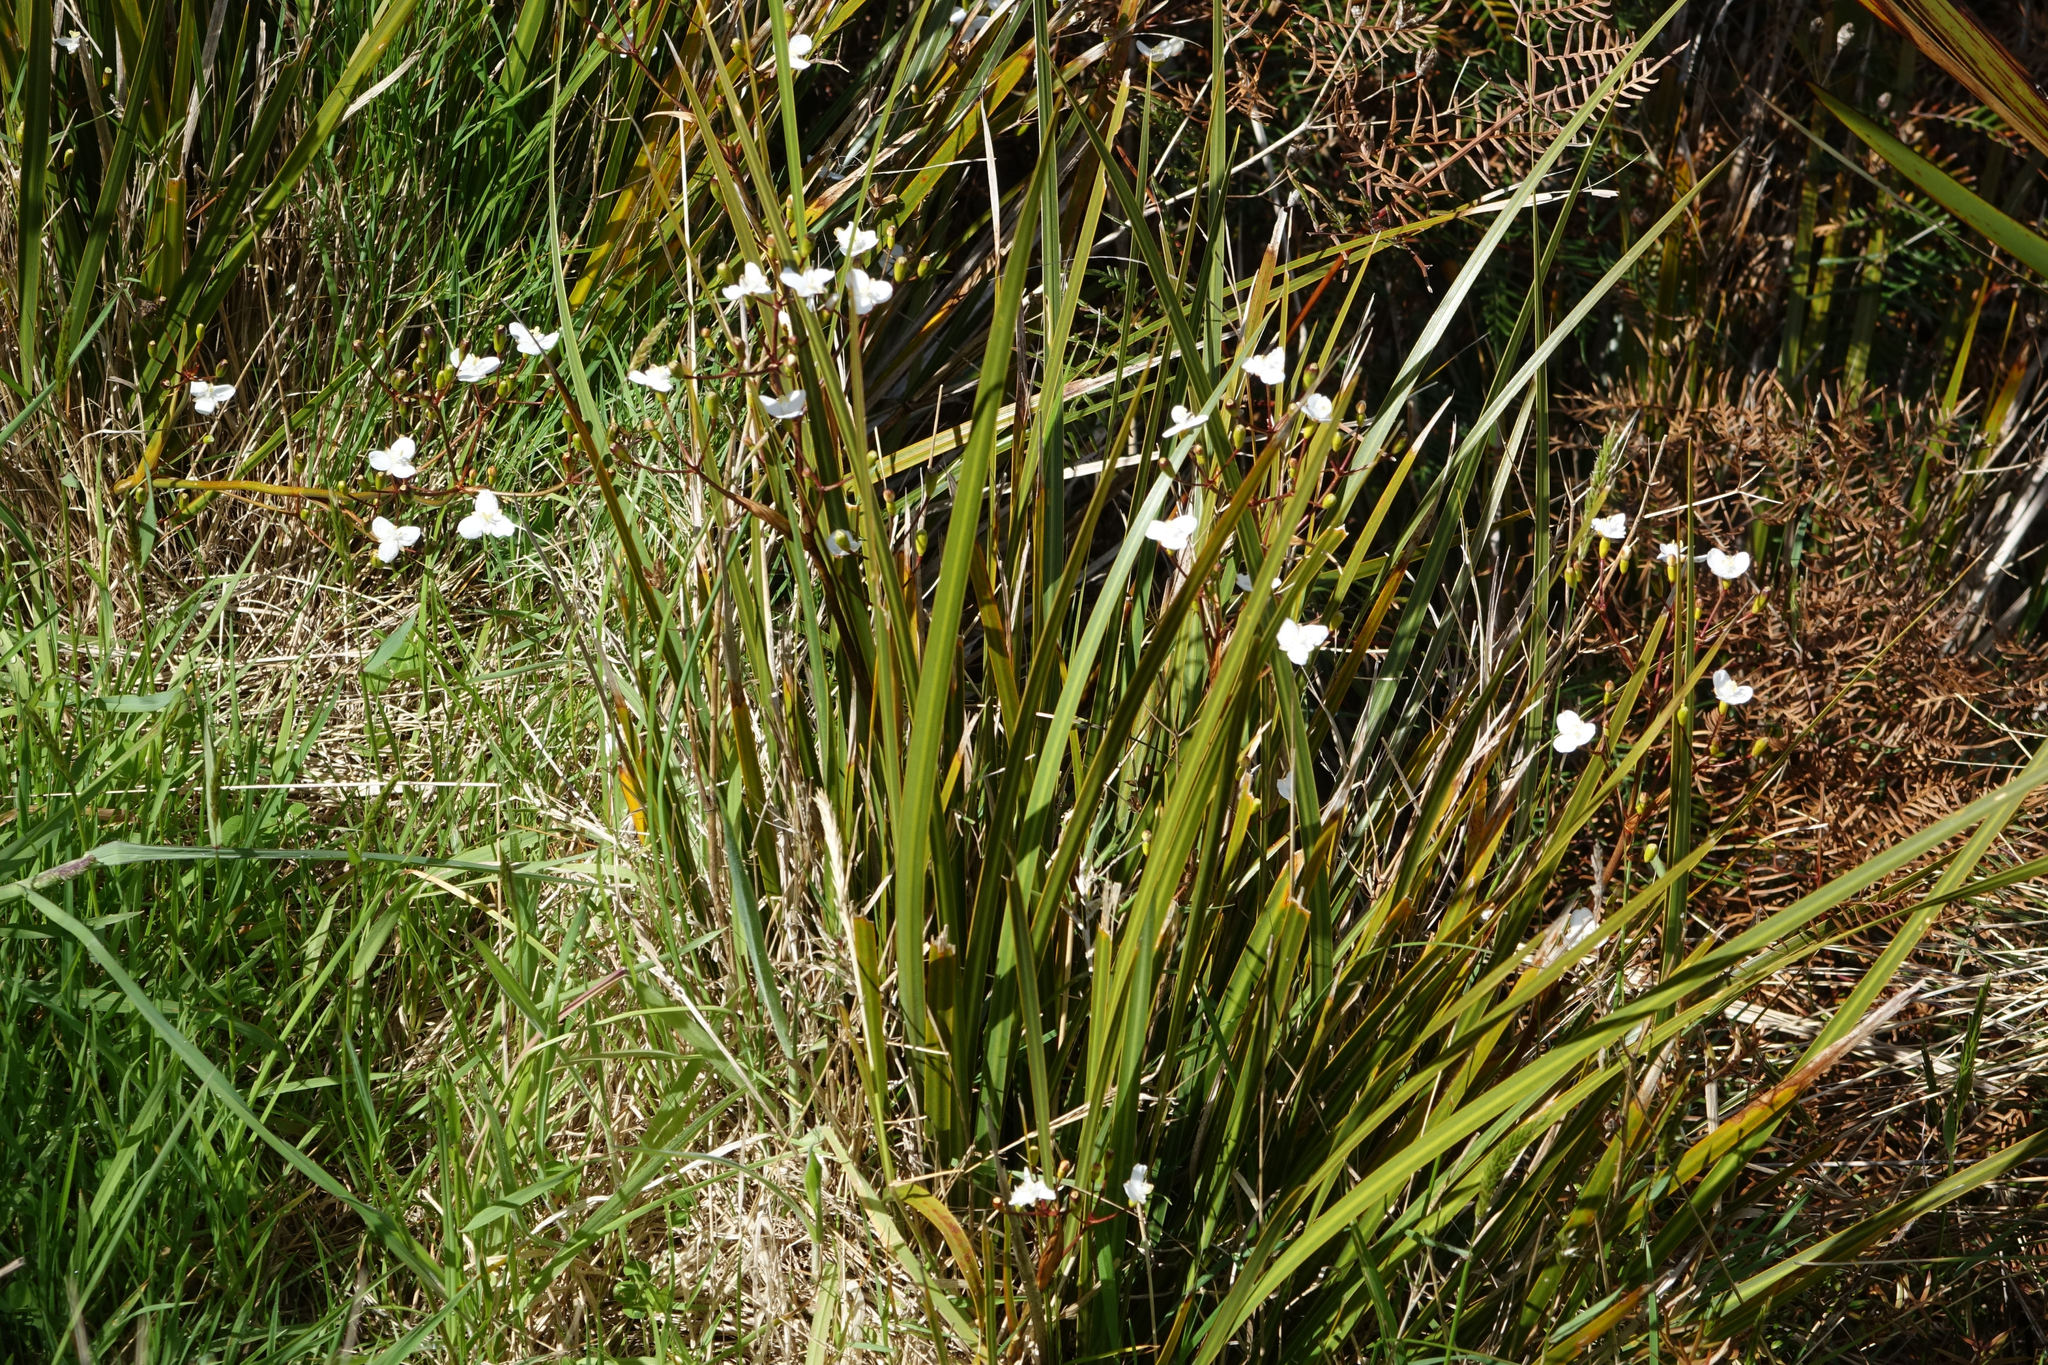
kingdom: Plantae
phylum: Tracheophyta
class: Liliopsida
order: Asparagales
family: Iridaceae
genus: Libertia
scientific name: Libertia ixioides
